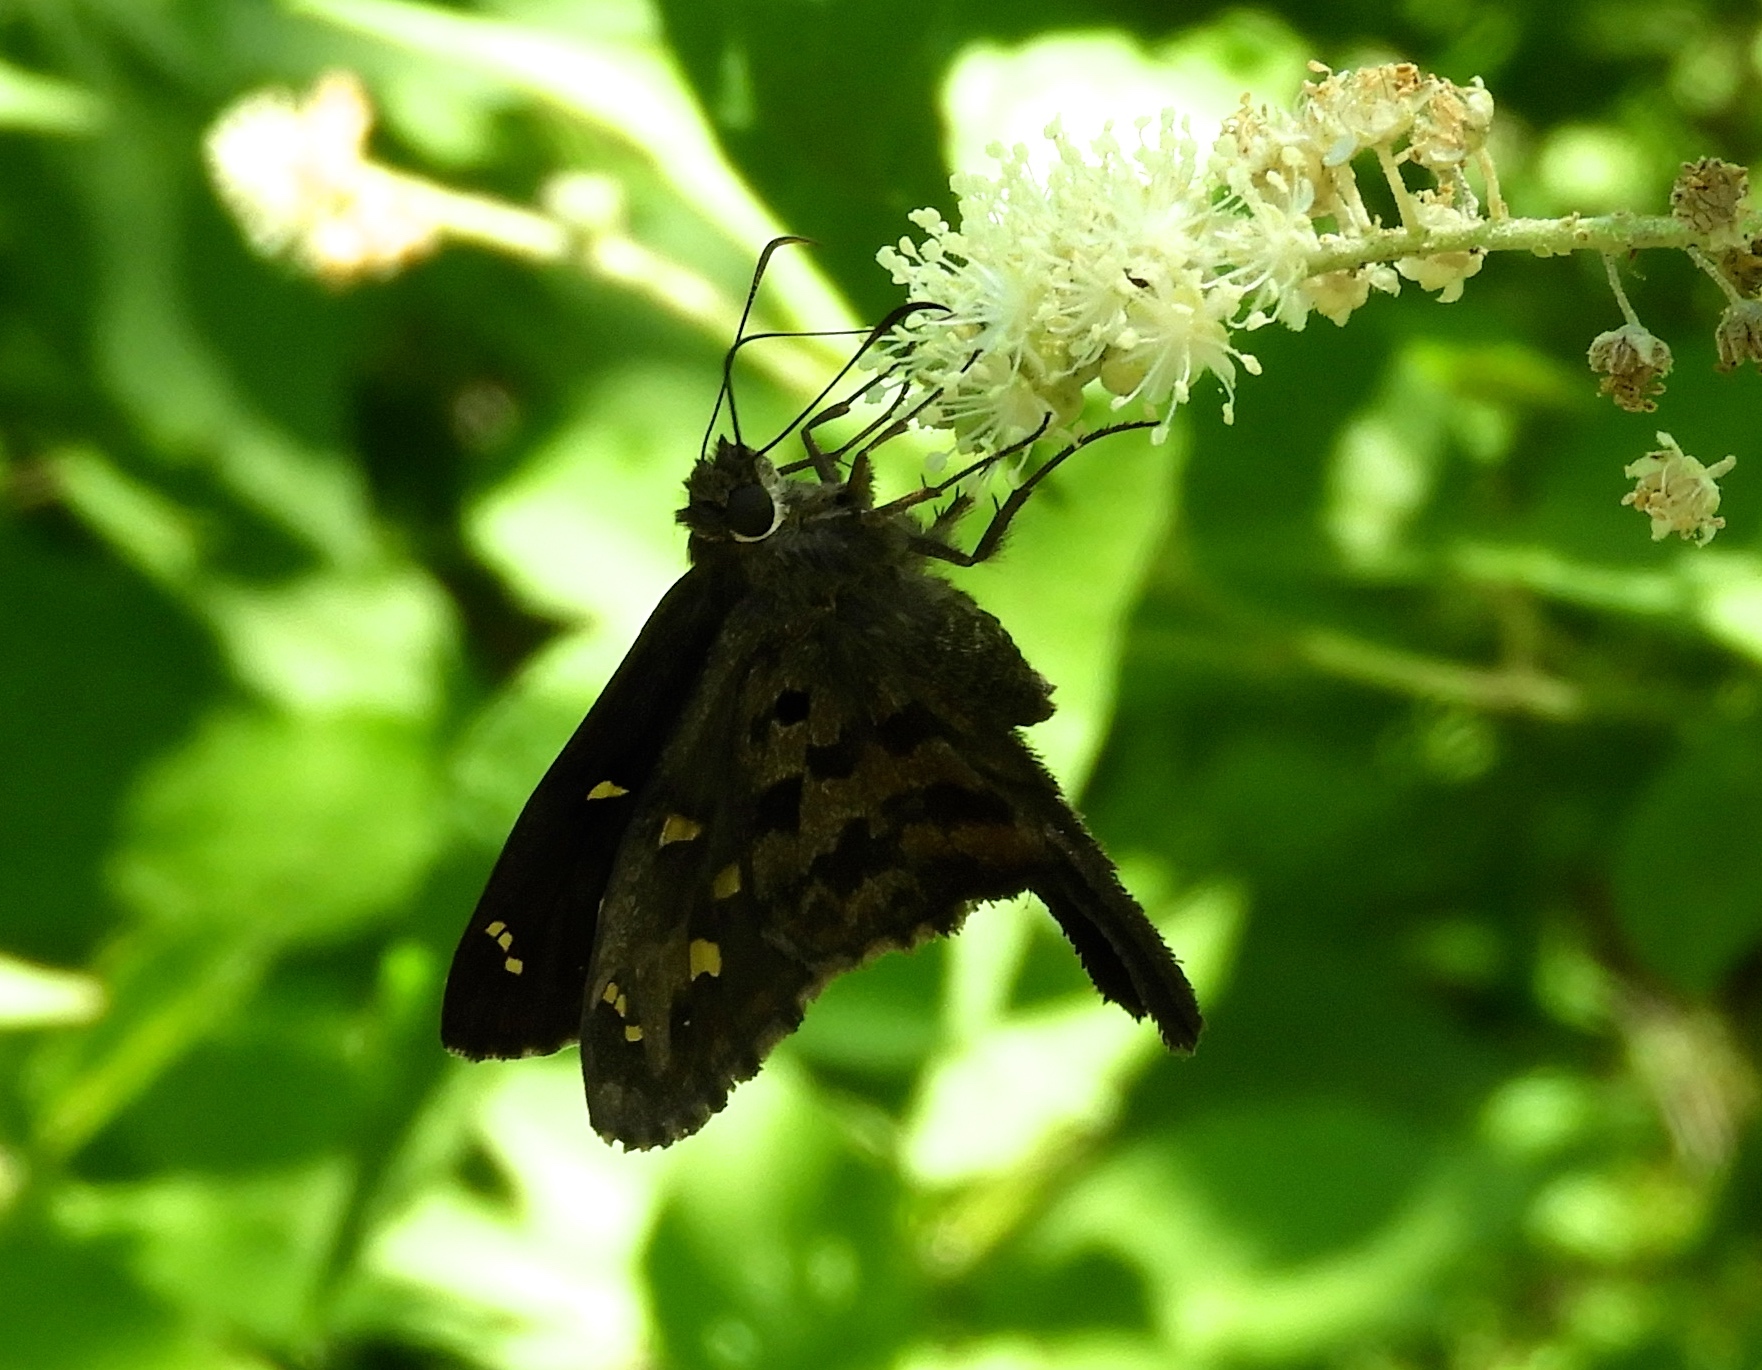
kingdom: Animalia
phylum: Arthropoda
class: Insecta
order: Lepidoptera
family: Hesperiidae
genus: Thorybes
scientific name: Thorybes
